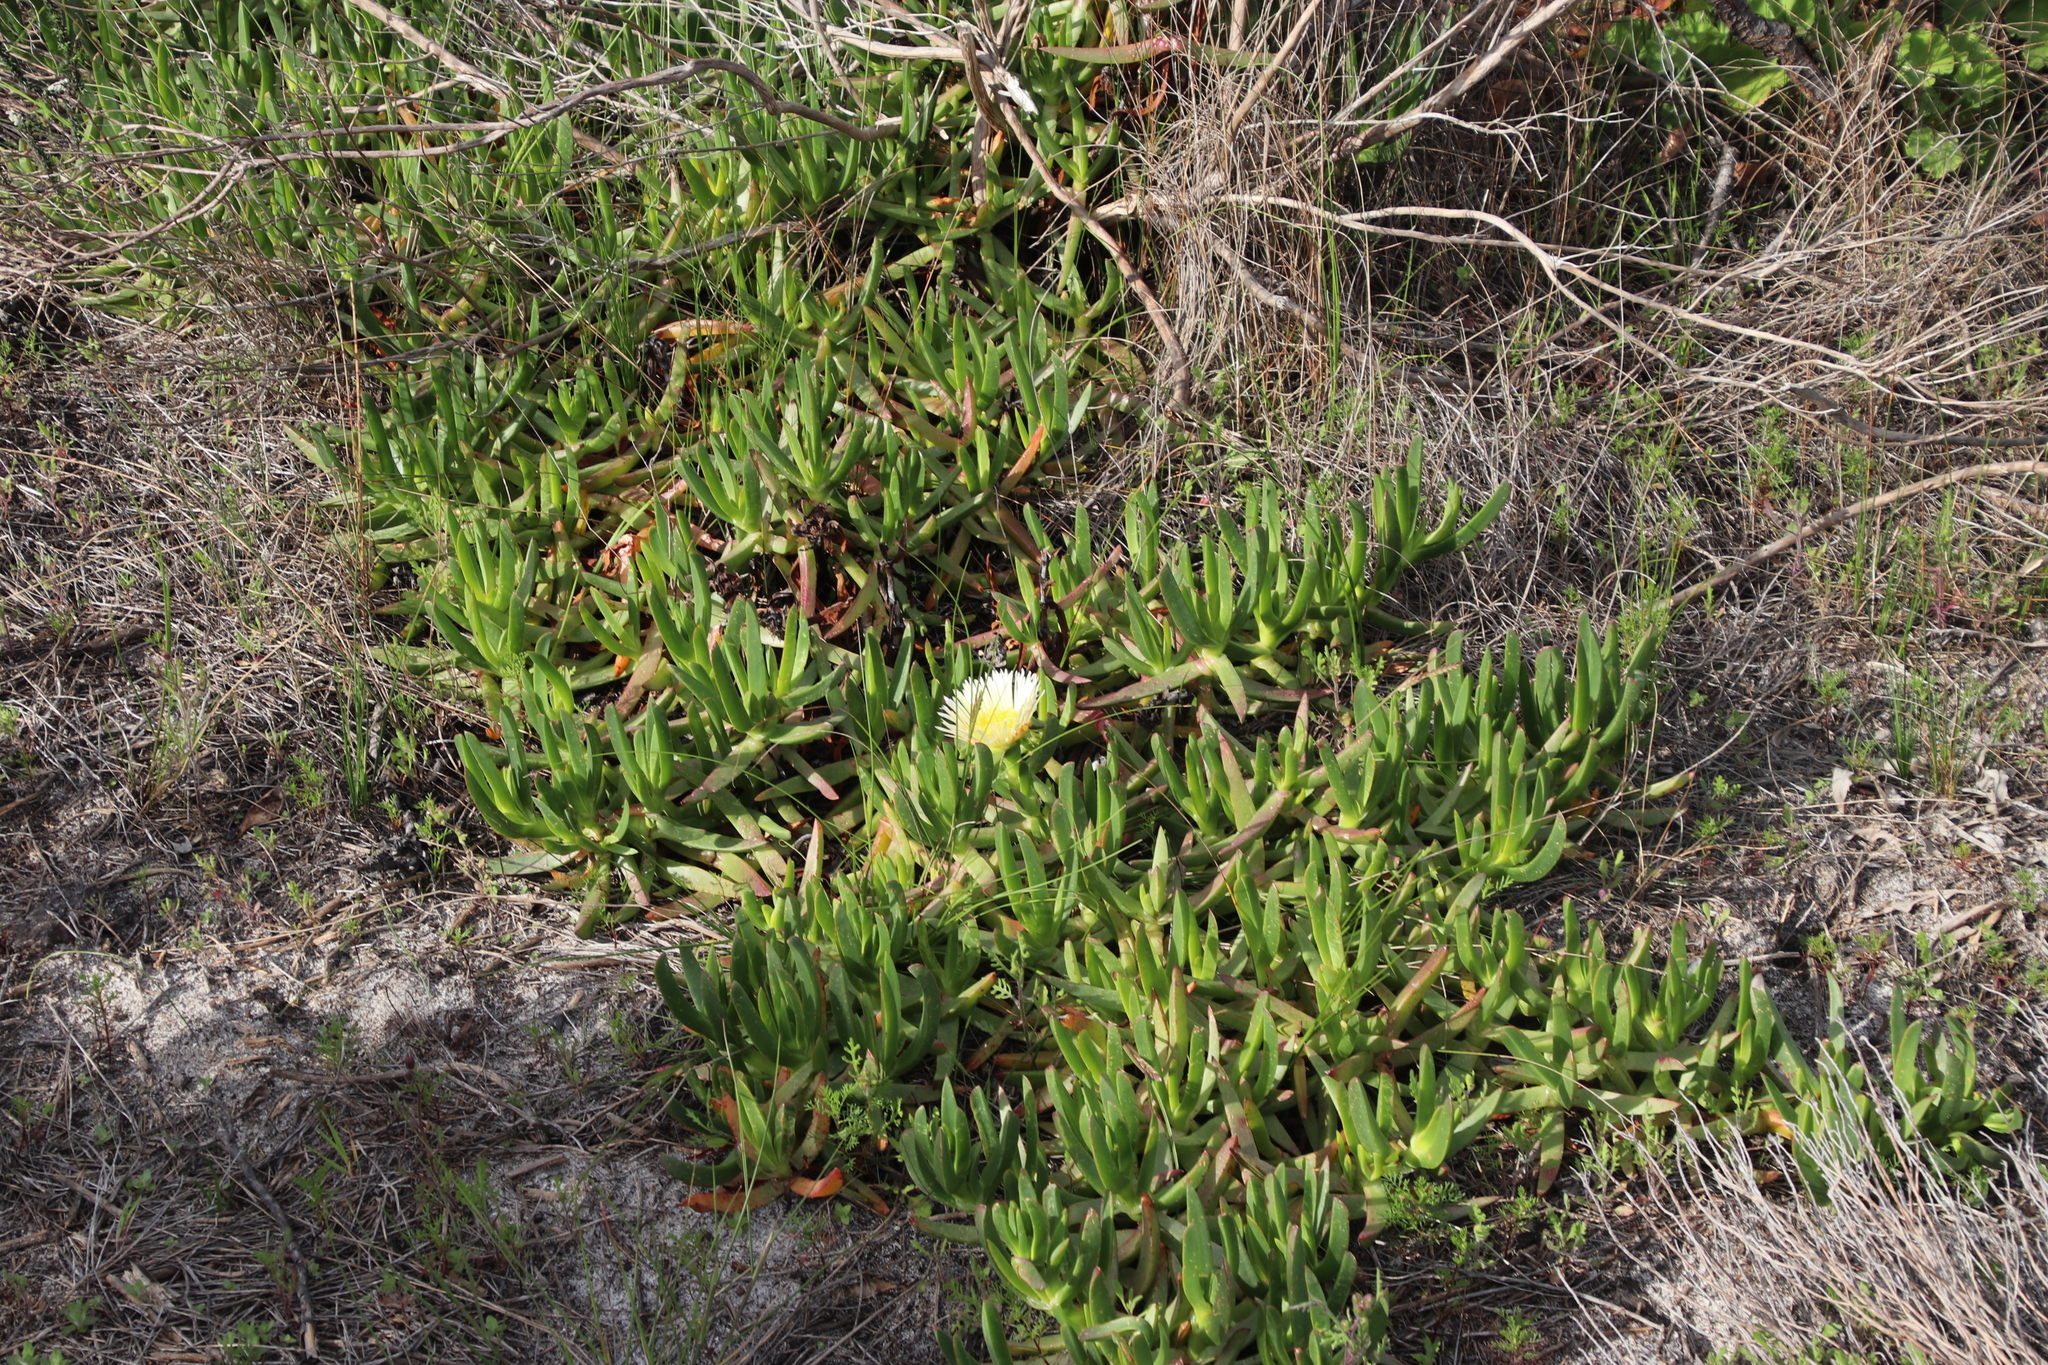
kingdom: Plantae
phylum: Tracheophyta
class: Magnoliopsida
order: Caryophyllales
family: Aizoaceae
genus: Carpobrotus
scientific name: Carpobrotus edulis
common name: Hottentot-fig
